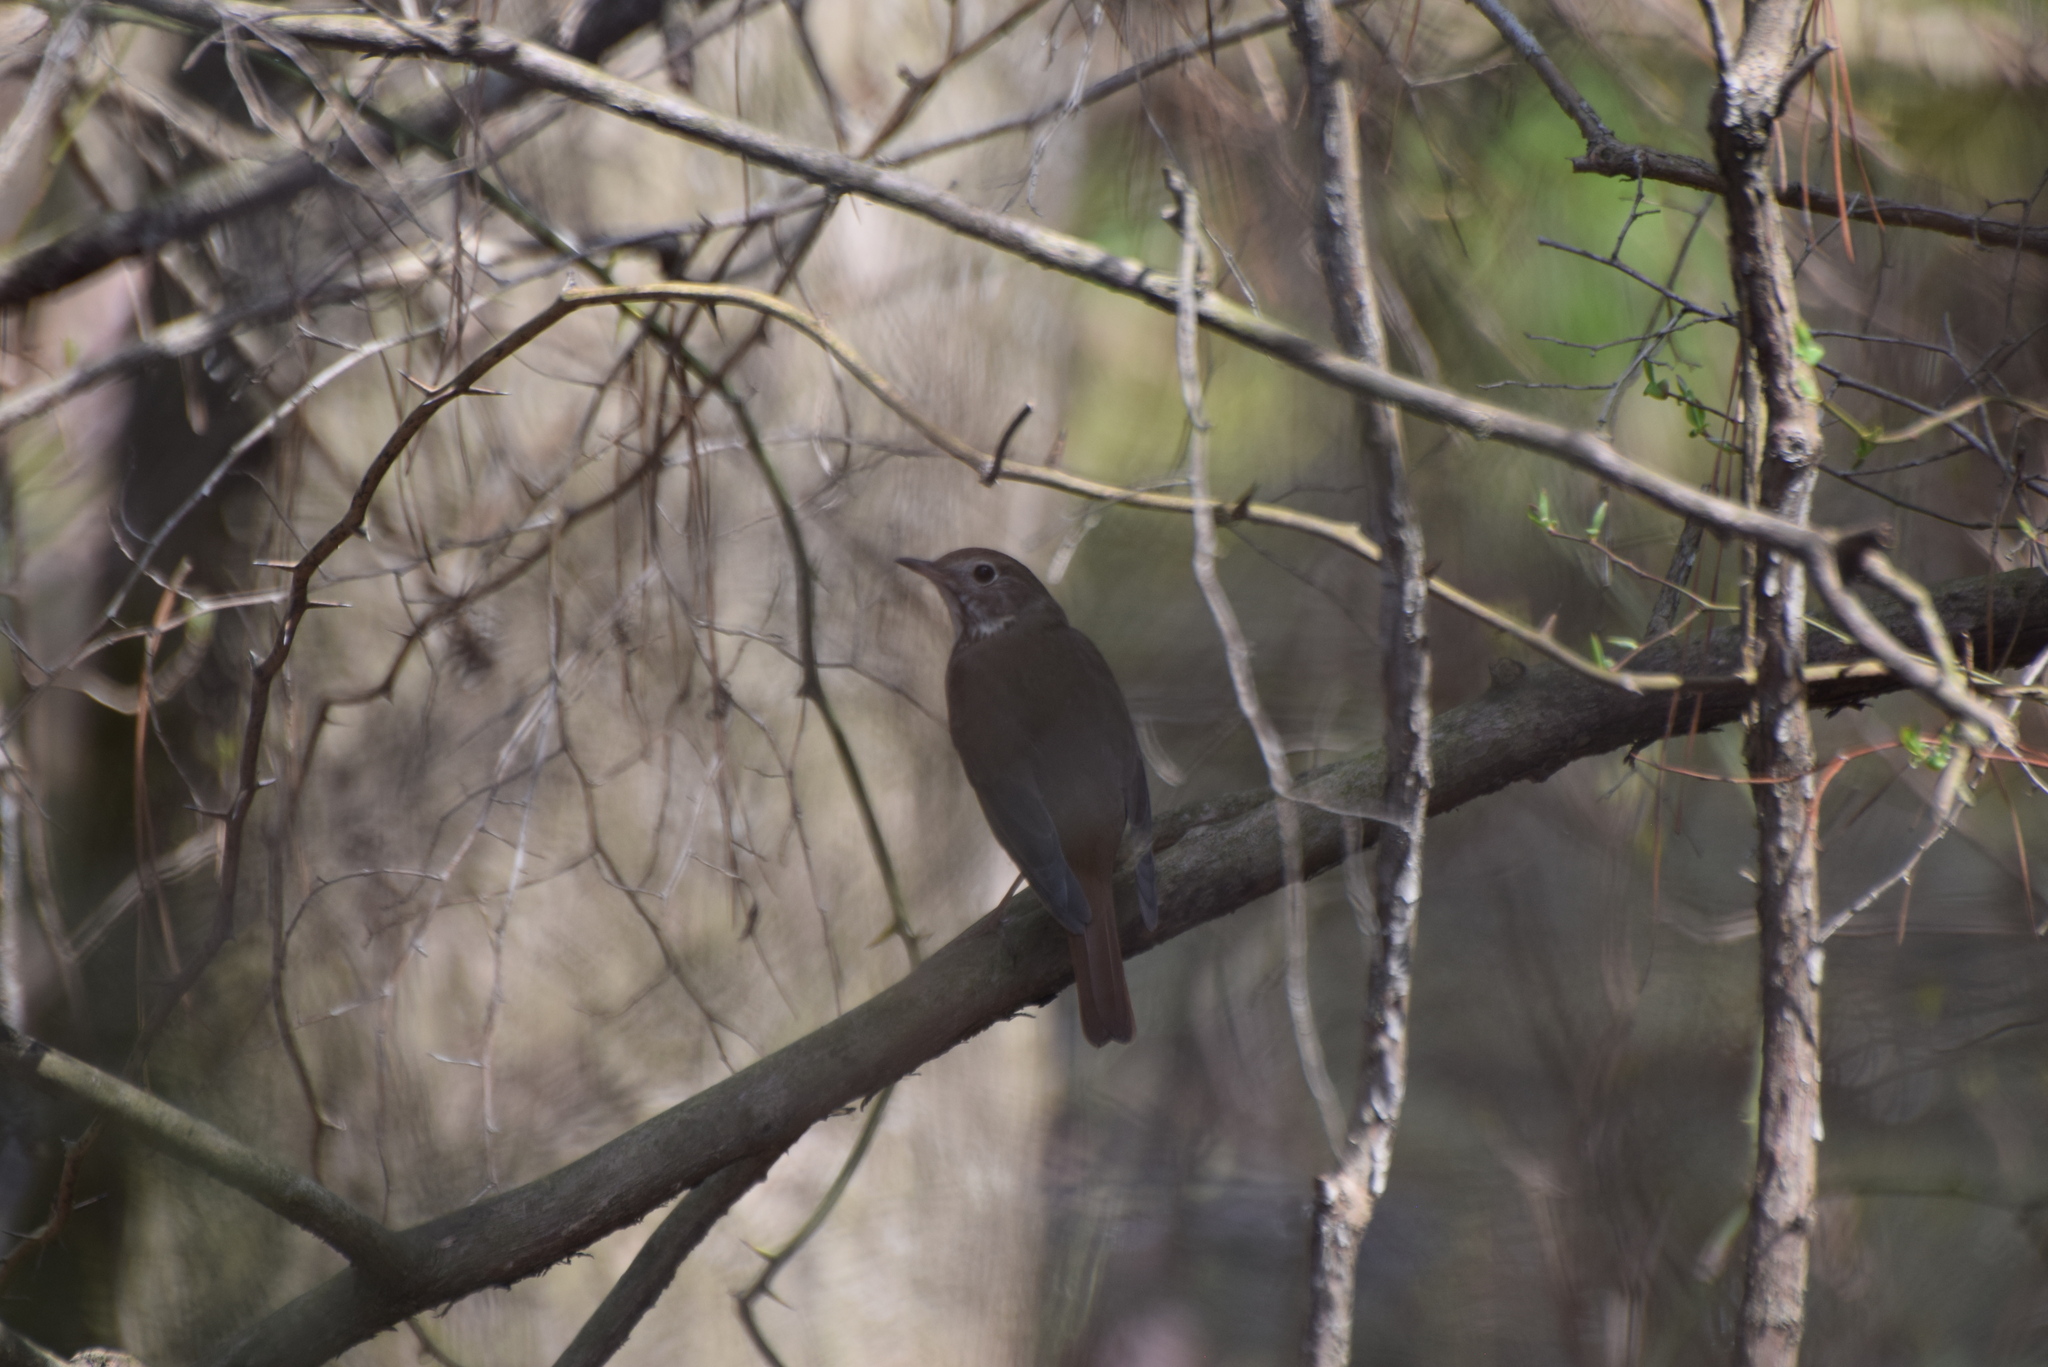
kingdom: Animalia
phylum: Chordata
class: Aves
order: Passeriformes
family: Turdidae
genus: Catharus
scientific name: Catharus guttatus
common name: Hermit thrush
